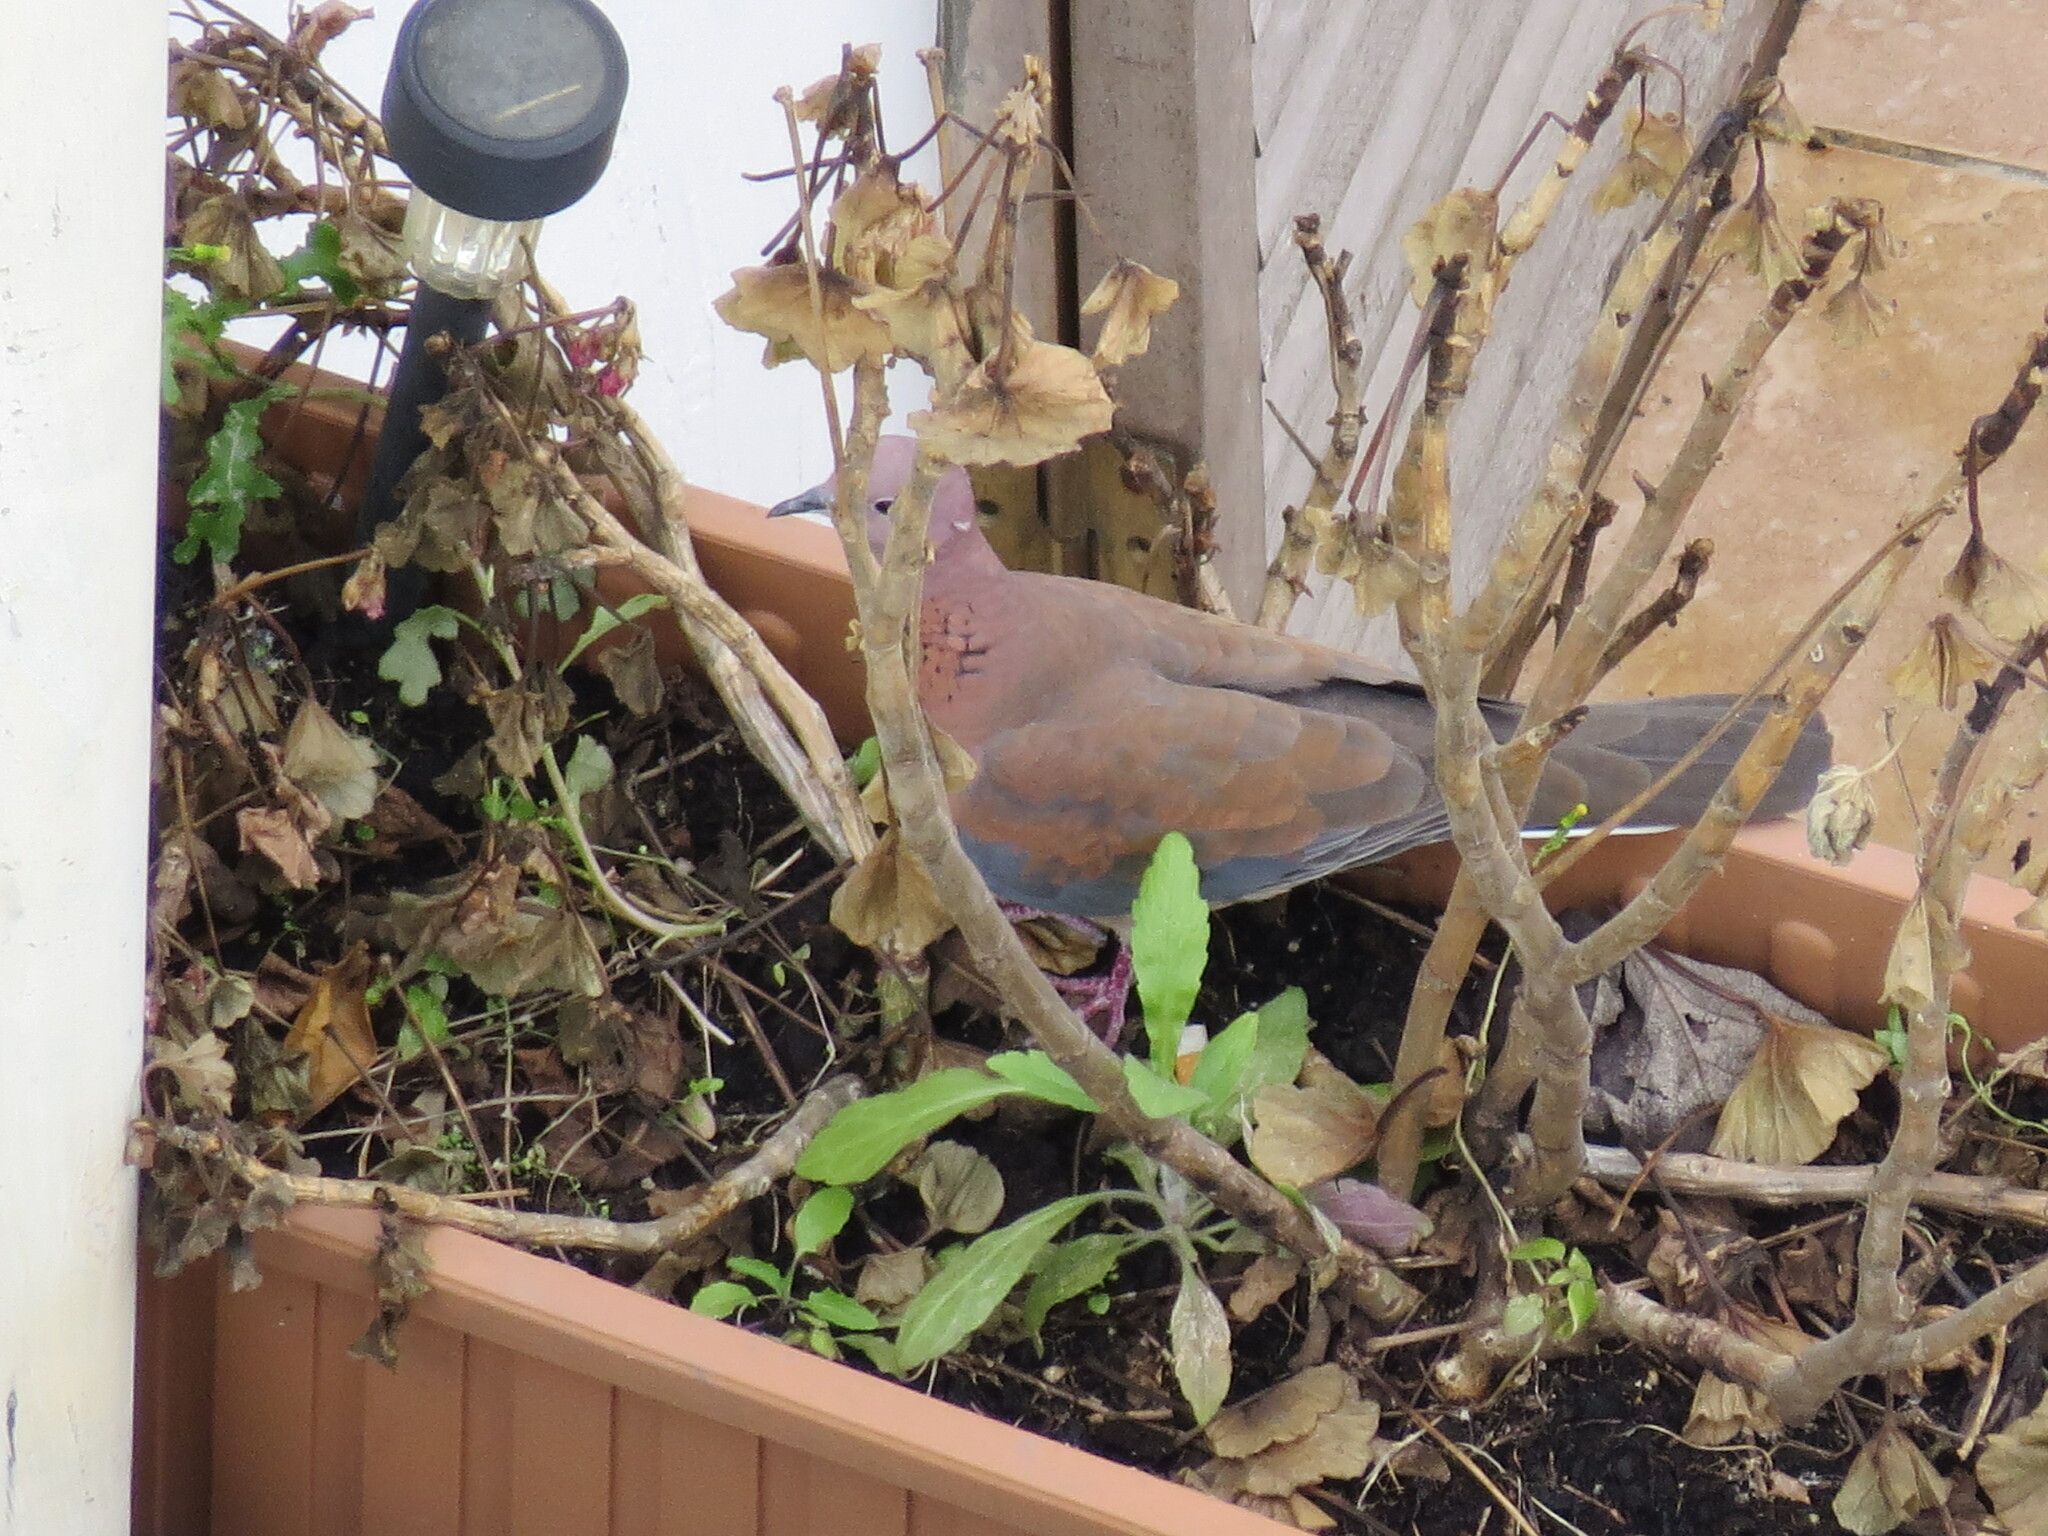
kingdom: Animalia
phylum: Chordata
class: Aves
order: Columbiformes
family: Columbidae
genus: Spilopelia
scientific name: Spilopelia senegalensis
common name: Laughing dove
